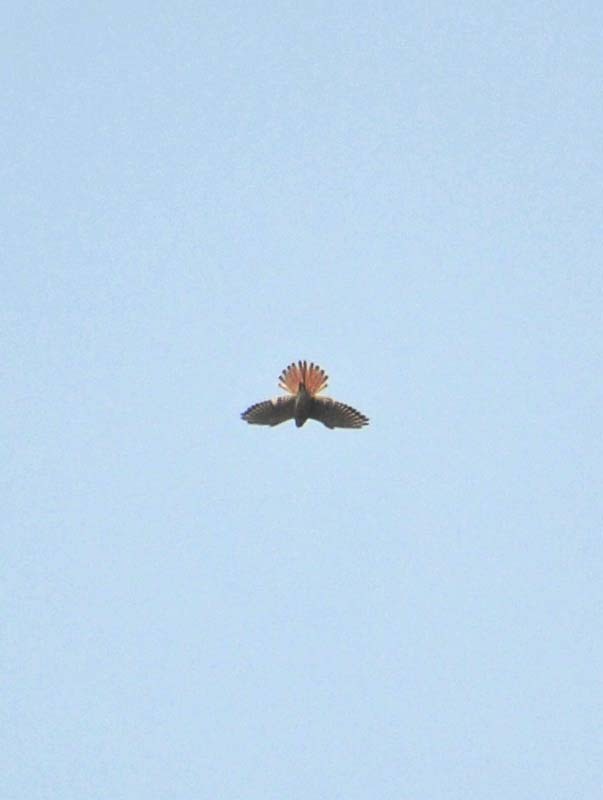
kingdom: Animalia
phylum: Chordata
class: Aves
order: Falconiformes
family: Falconidae
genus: Falco
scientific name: Falco sparverius
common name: American kestrel
